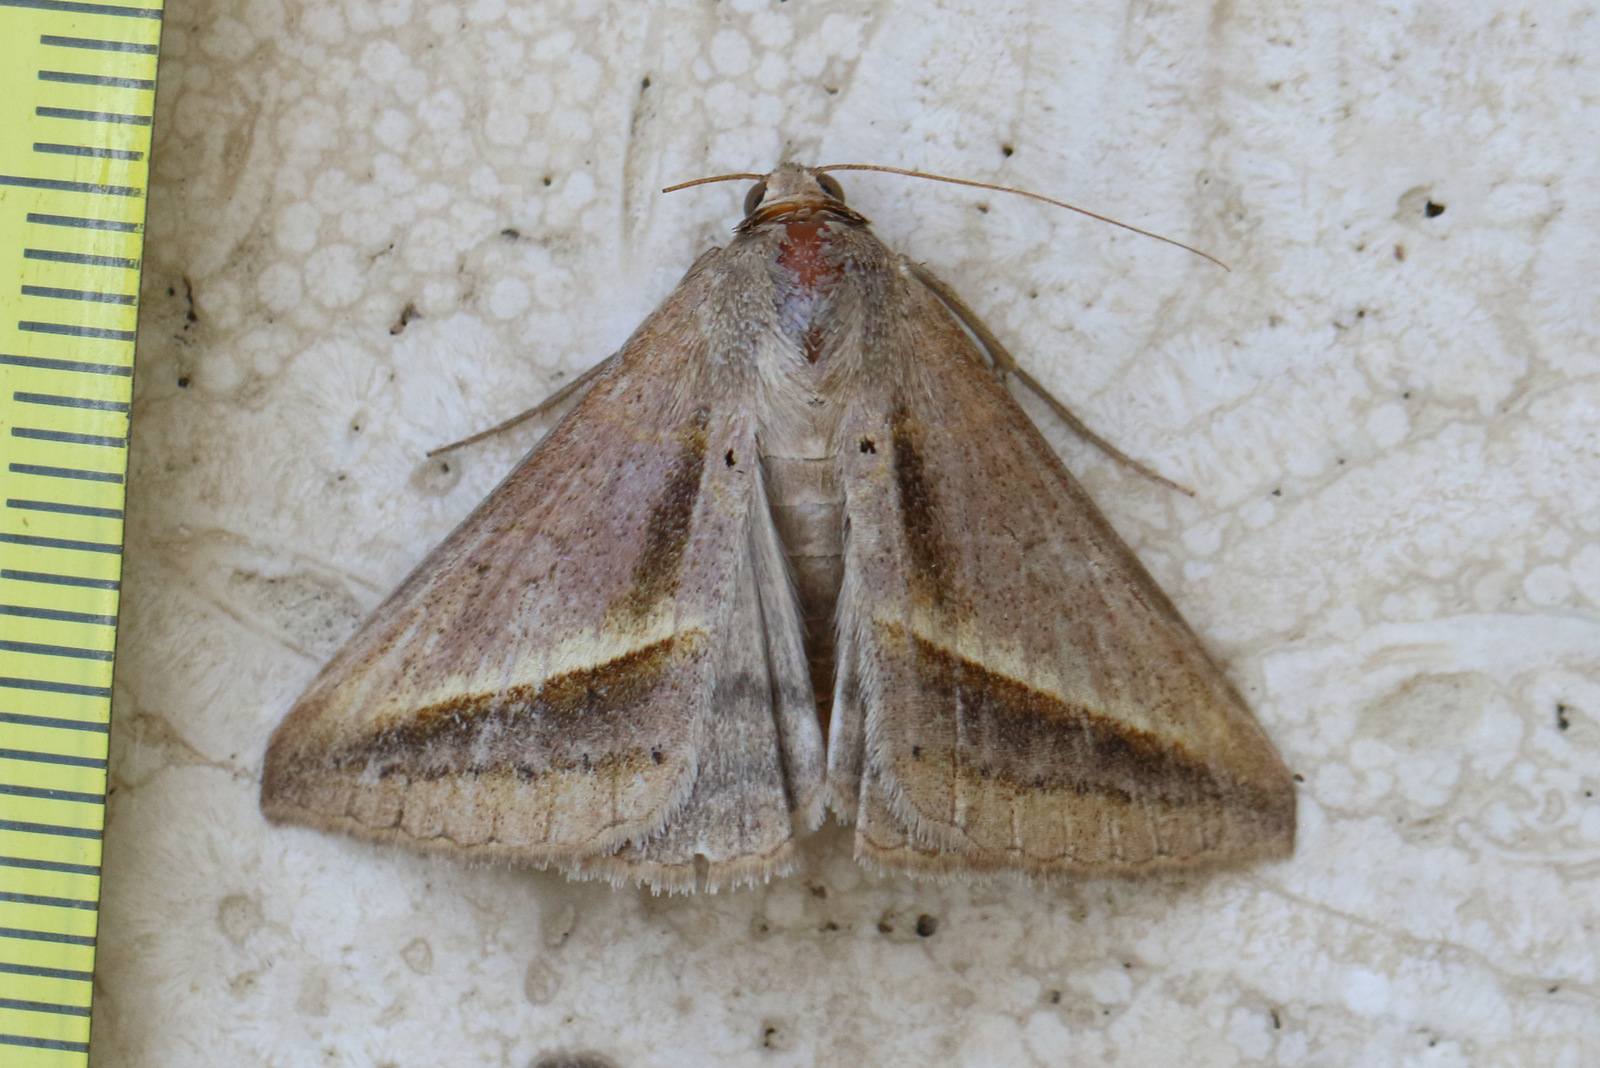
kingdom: Animalia
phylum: Arthropoda
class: Insecta
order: Lepidoptera
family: Erebidae
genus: Mocis
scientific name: Mocis frugalis
